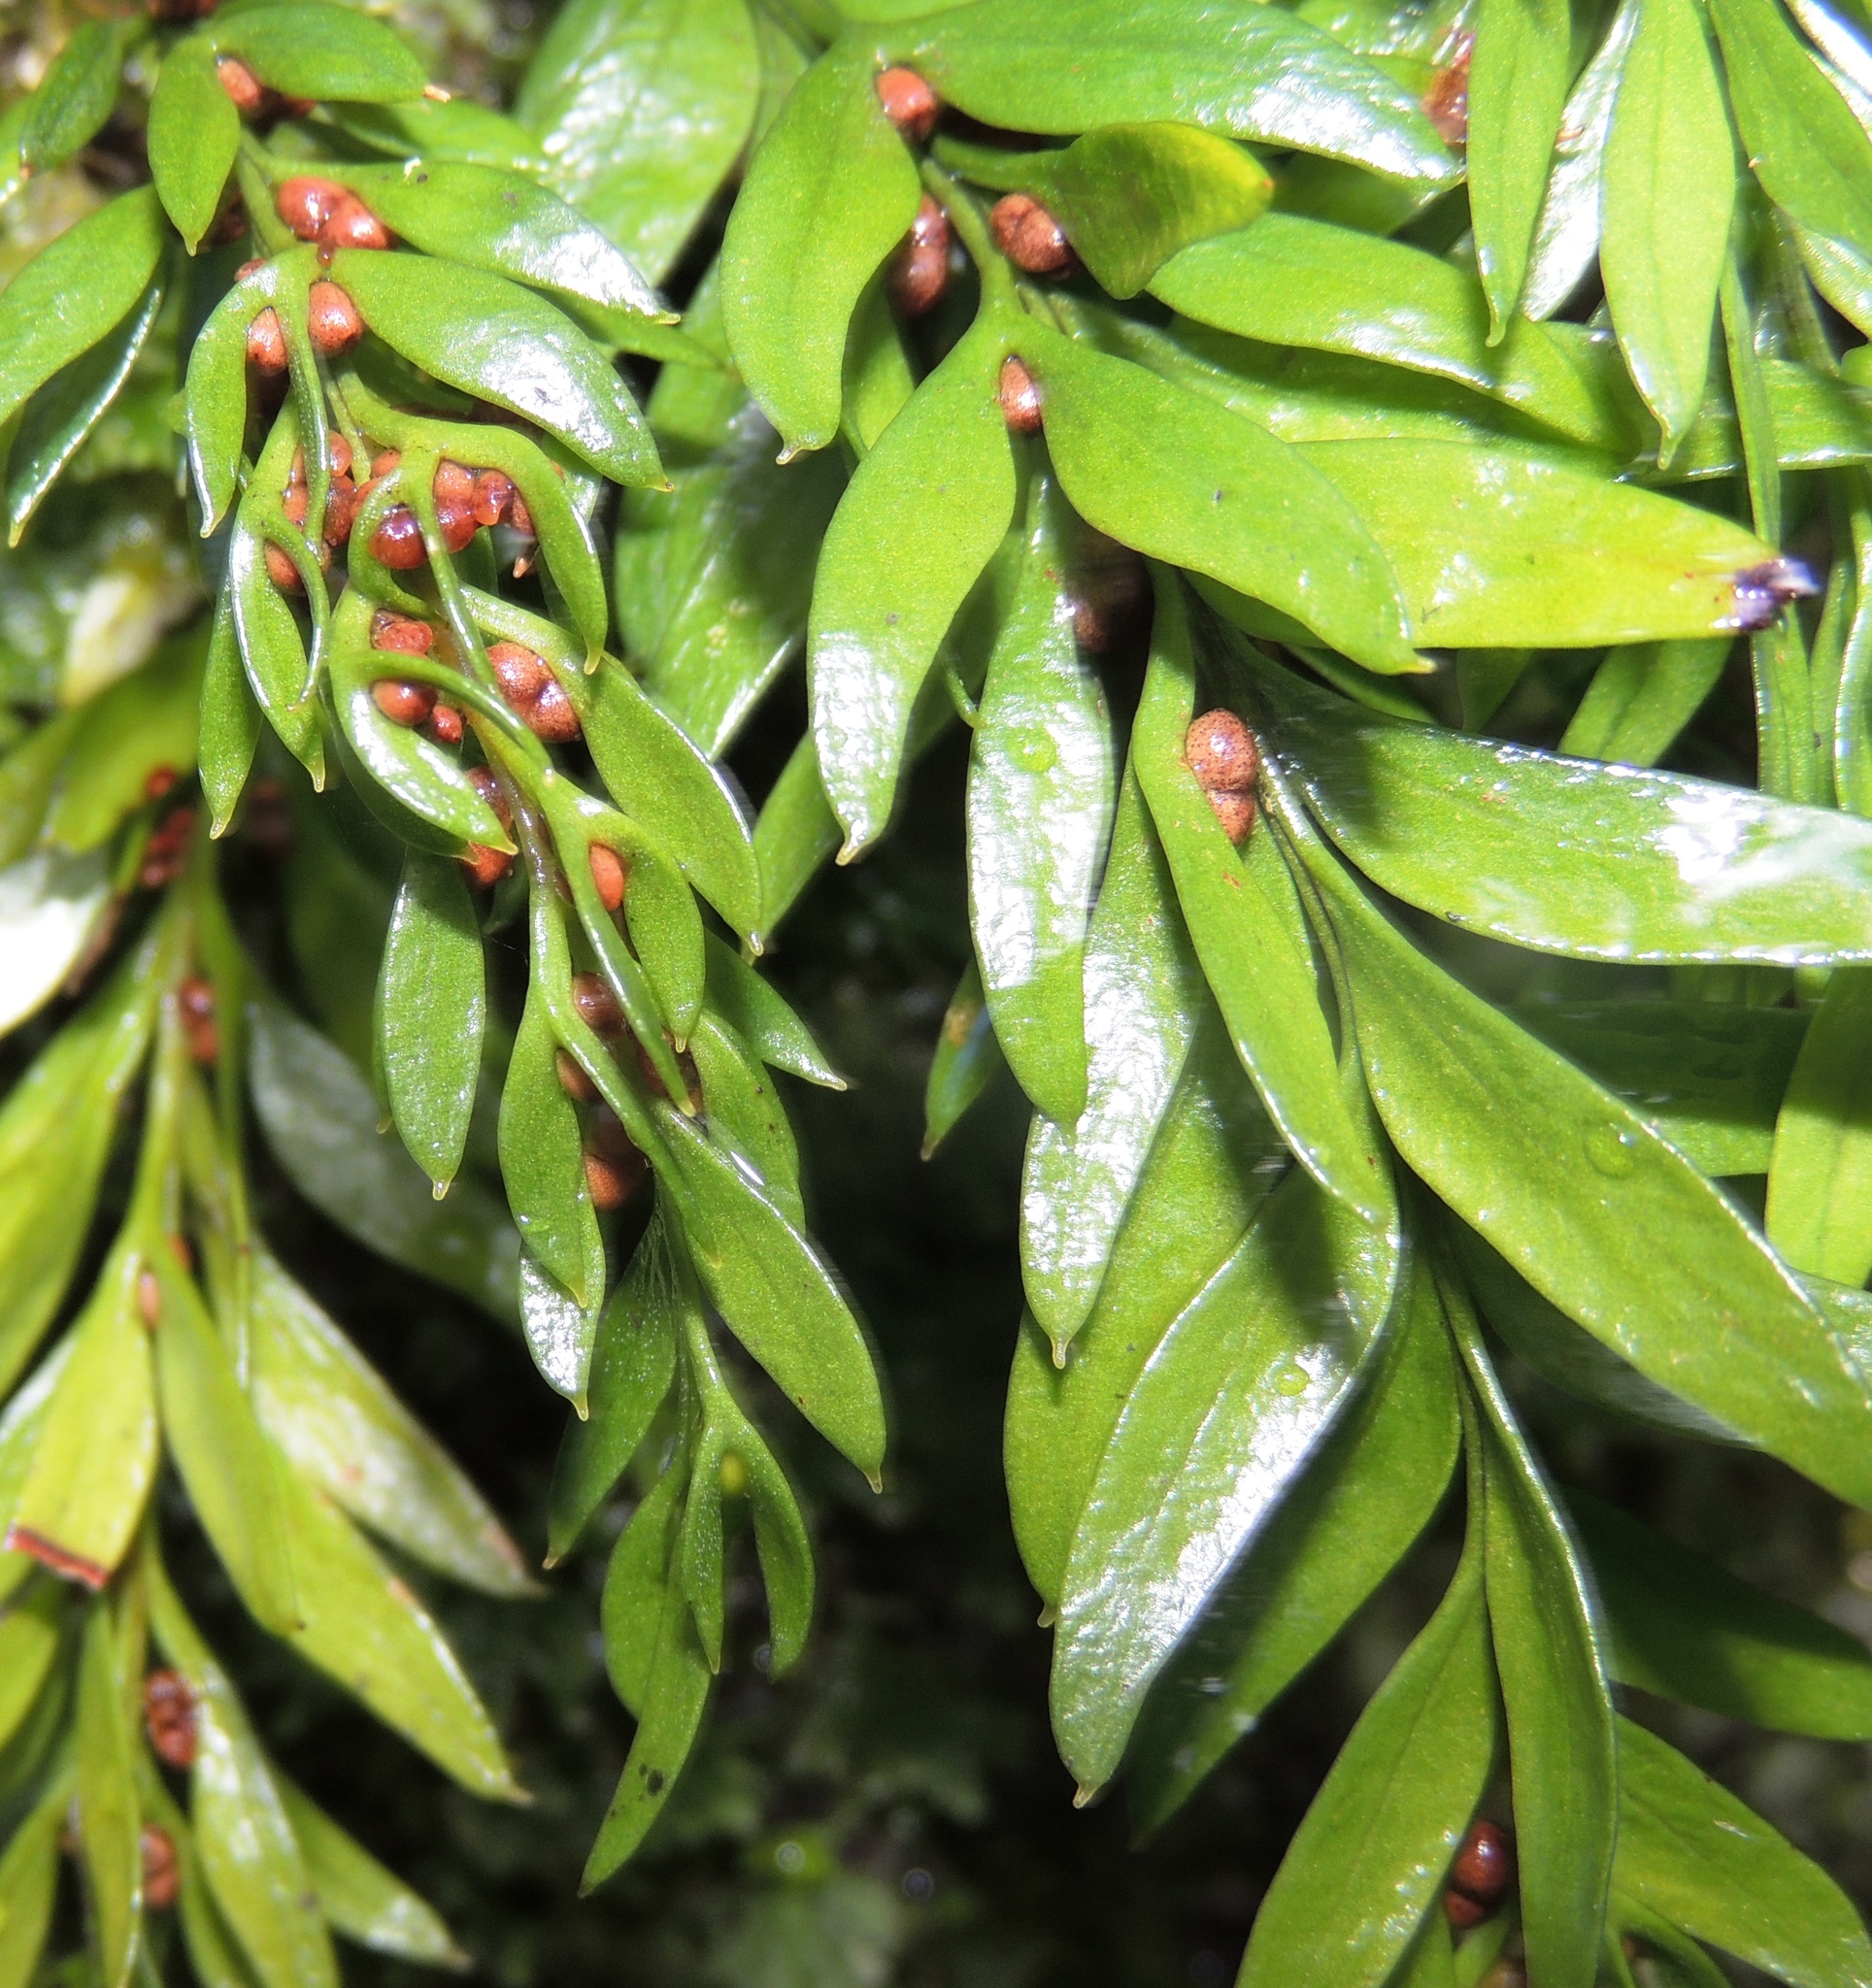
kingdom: Plantae
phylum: Tracheophyta
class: Polypodiopsida
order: Psilotales
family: Psilotaceae
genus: Tmesipteris
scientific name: Tmesipteris norfolkensis
